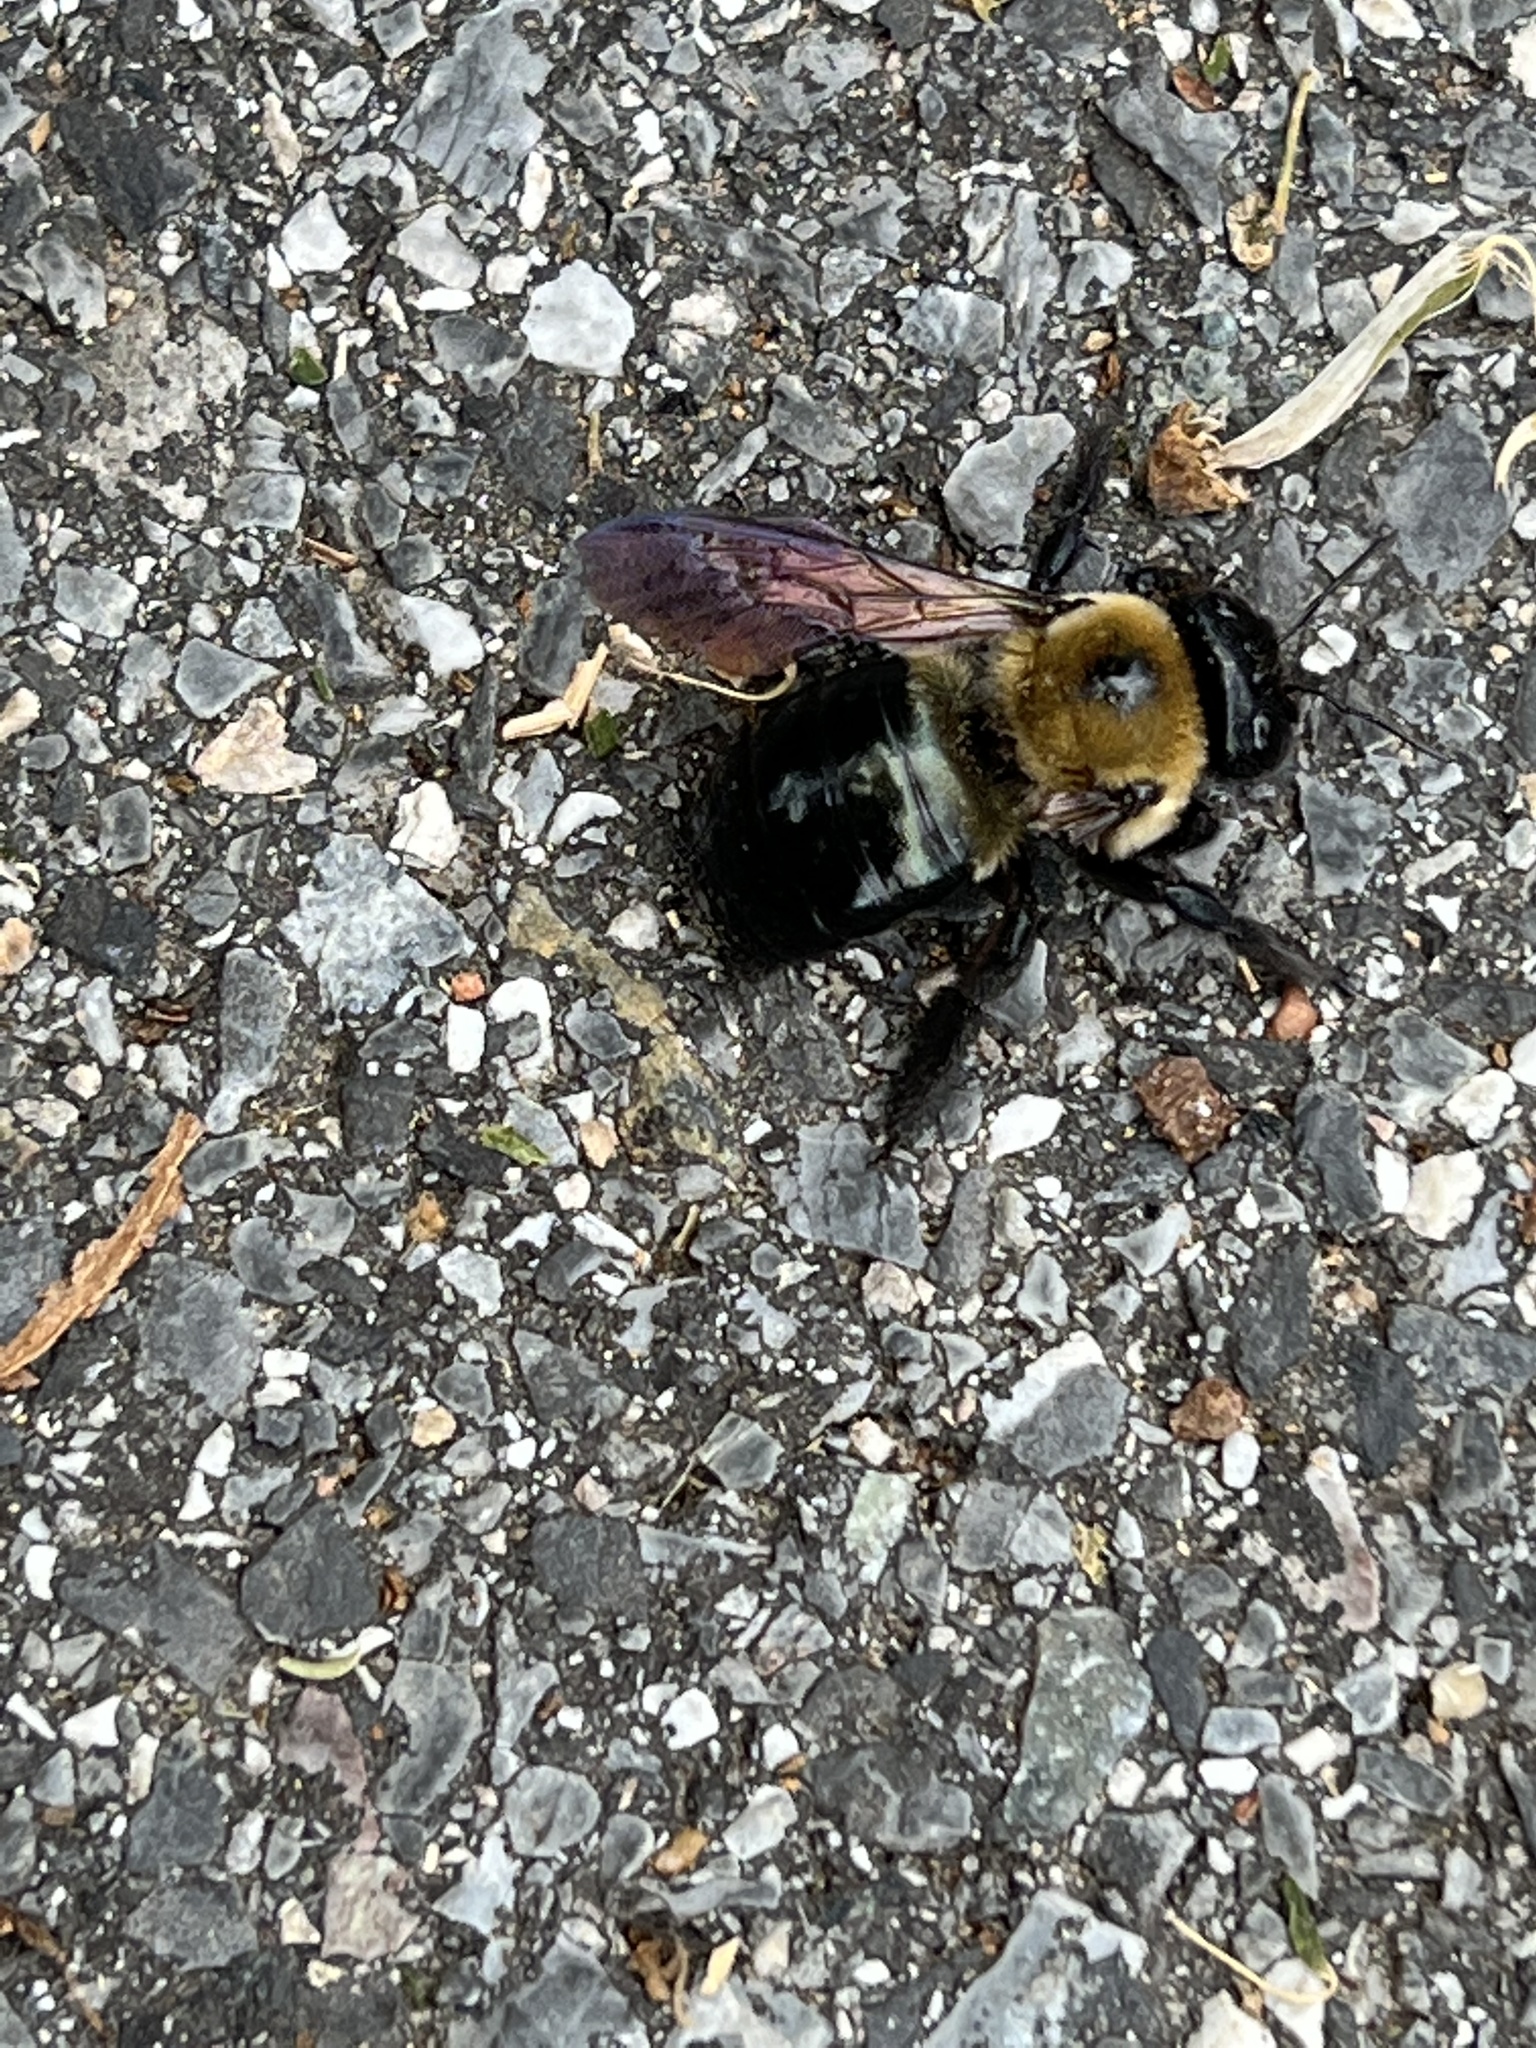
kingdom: Animalia
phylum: Arthropoda
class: Insecta
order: Hymenoptera
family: Apidae
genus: Xylocopa
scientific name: Xylocopa virginica
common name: Carpenter bee
